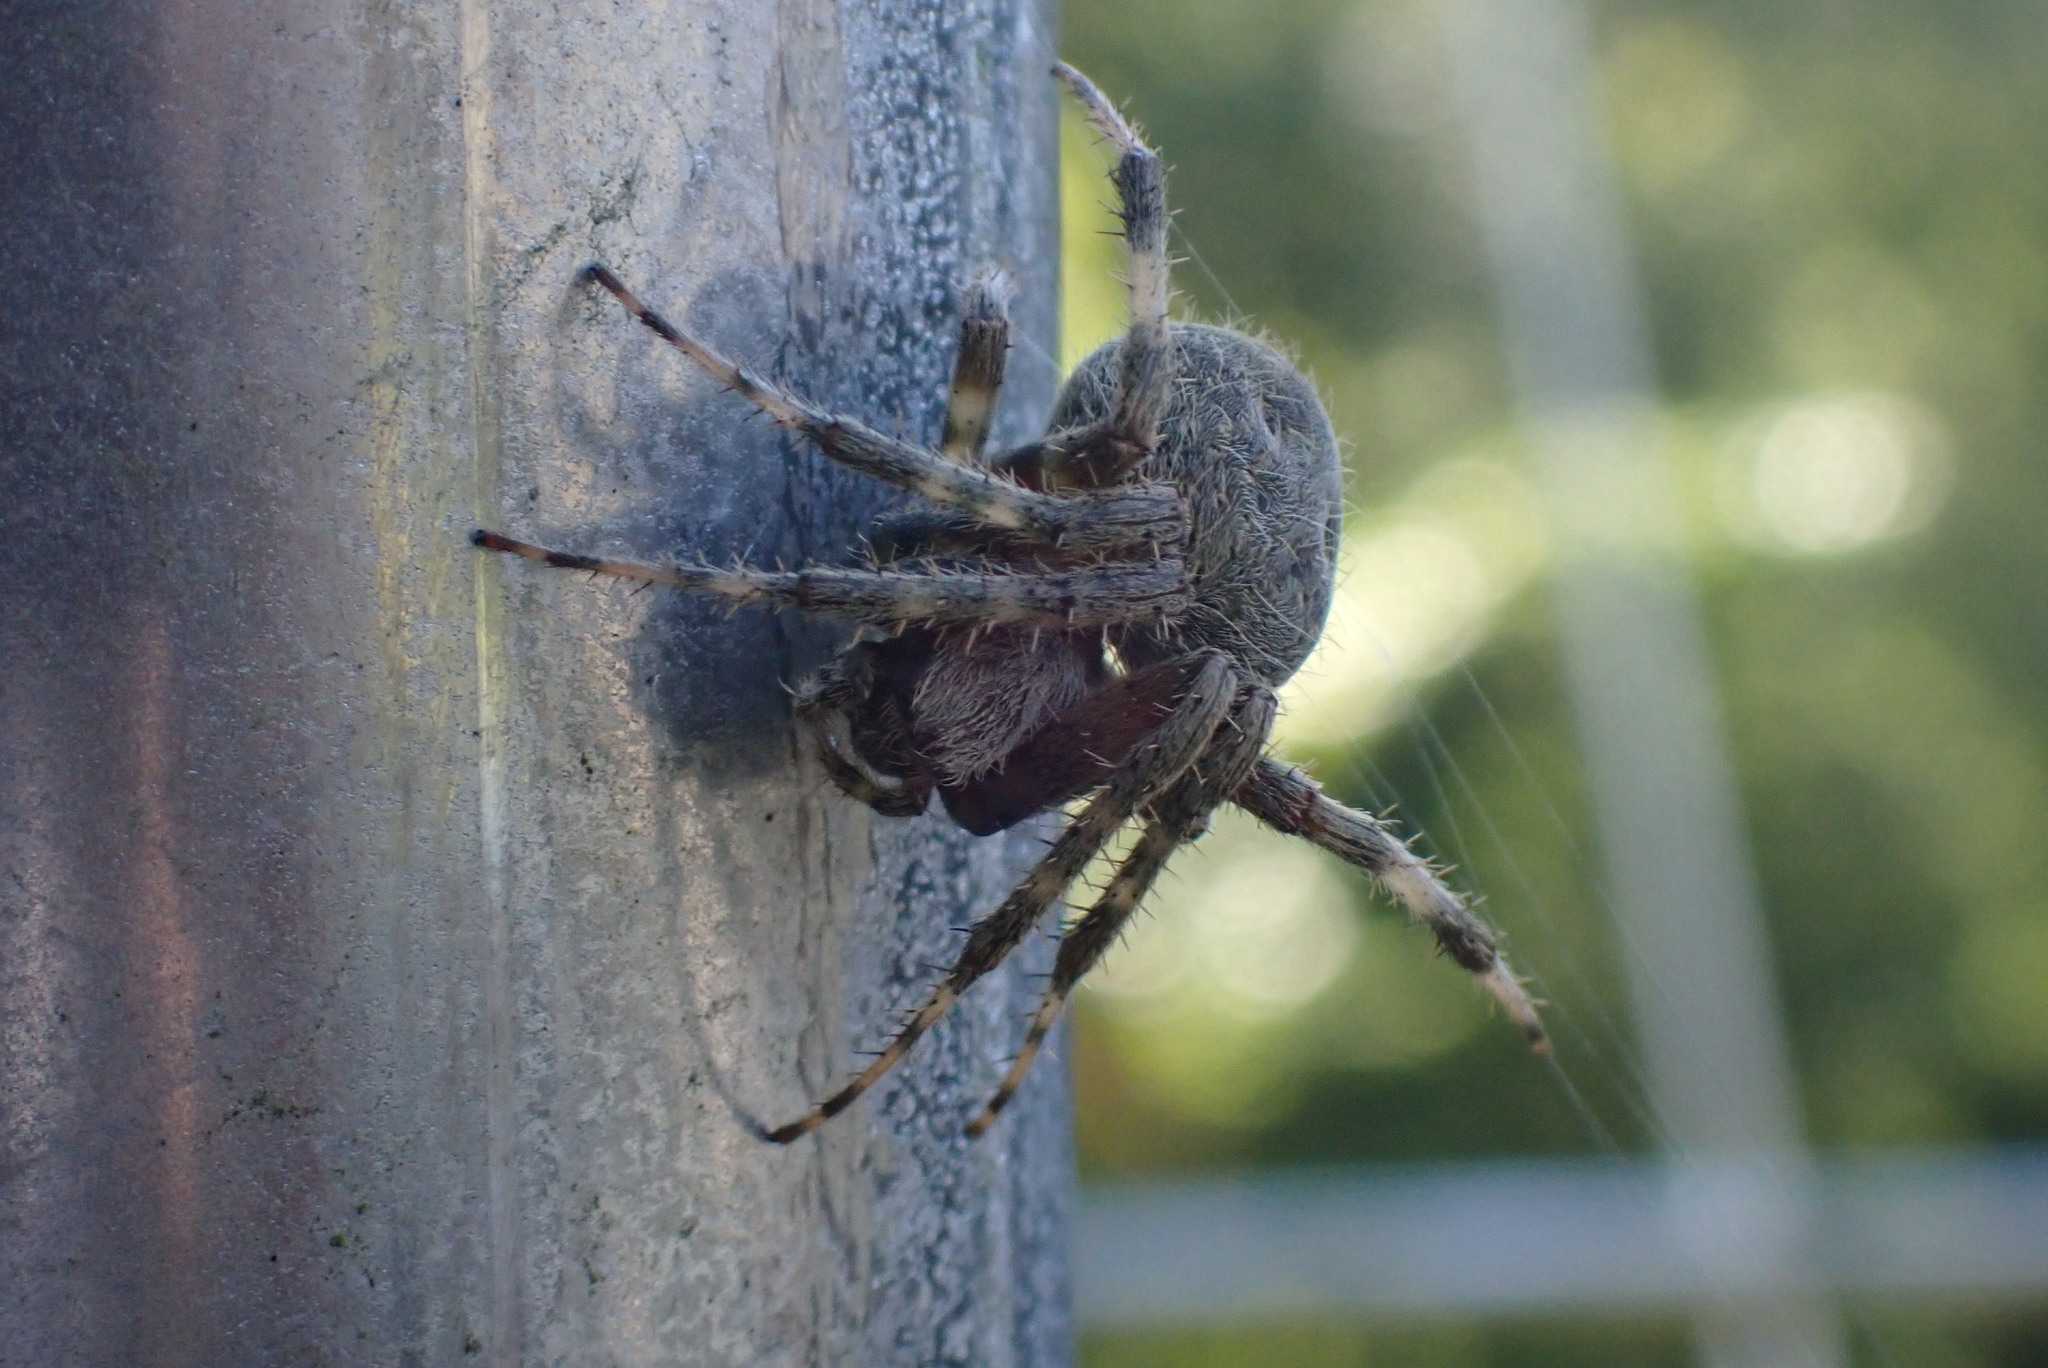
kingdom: Animalia
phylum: Arthropoda
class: Arachnida
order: Araneae
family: Araneidae
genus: Neoscona
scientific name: Neoscona crucifera
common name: Spotted orbweaver
